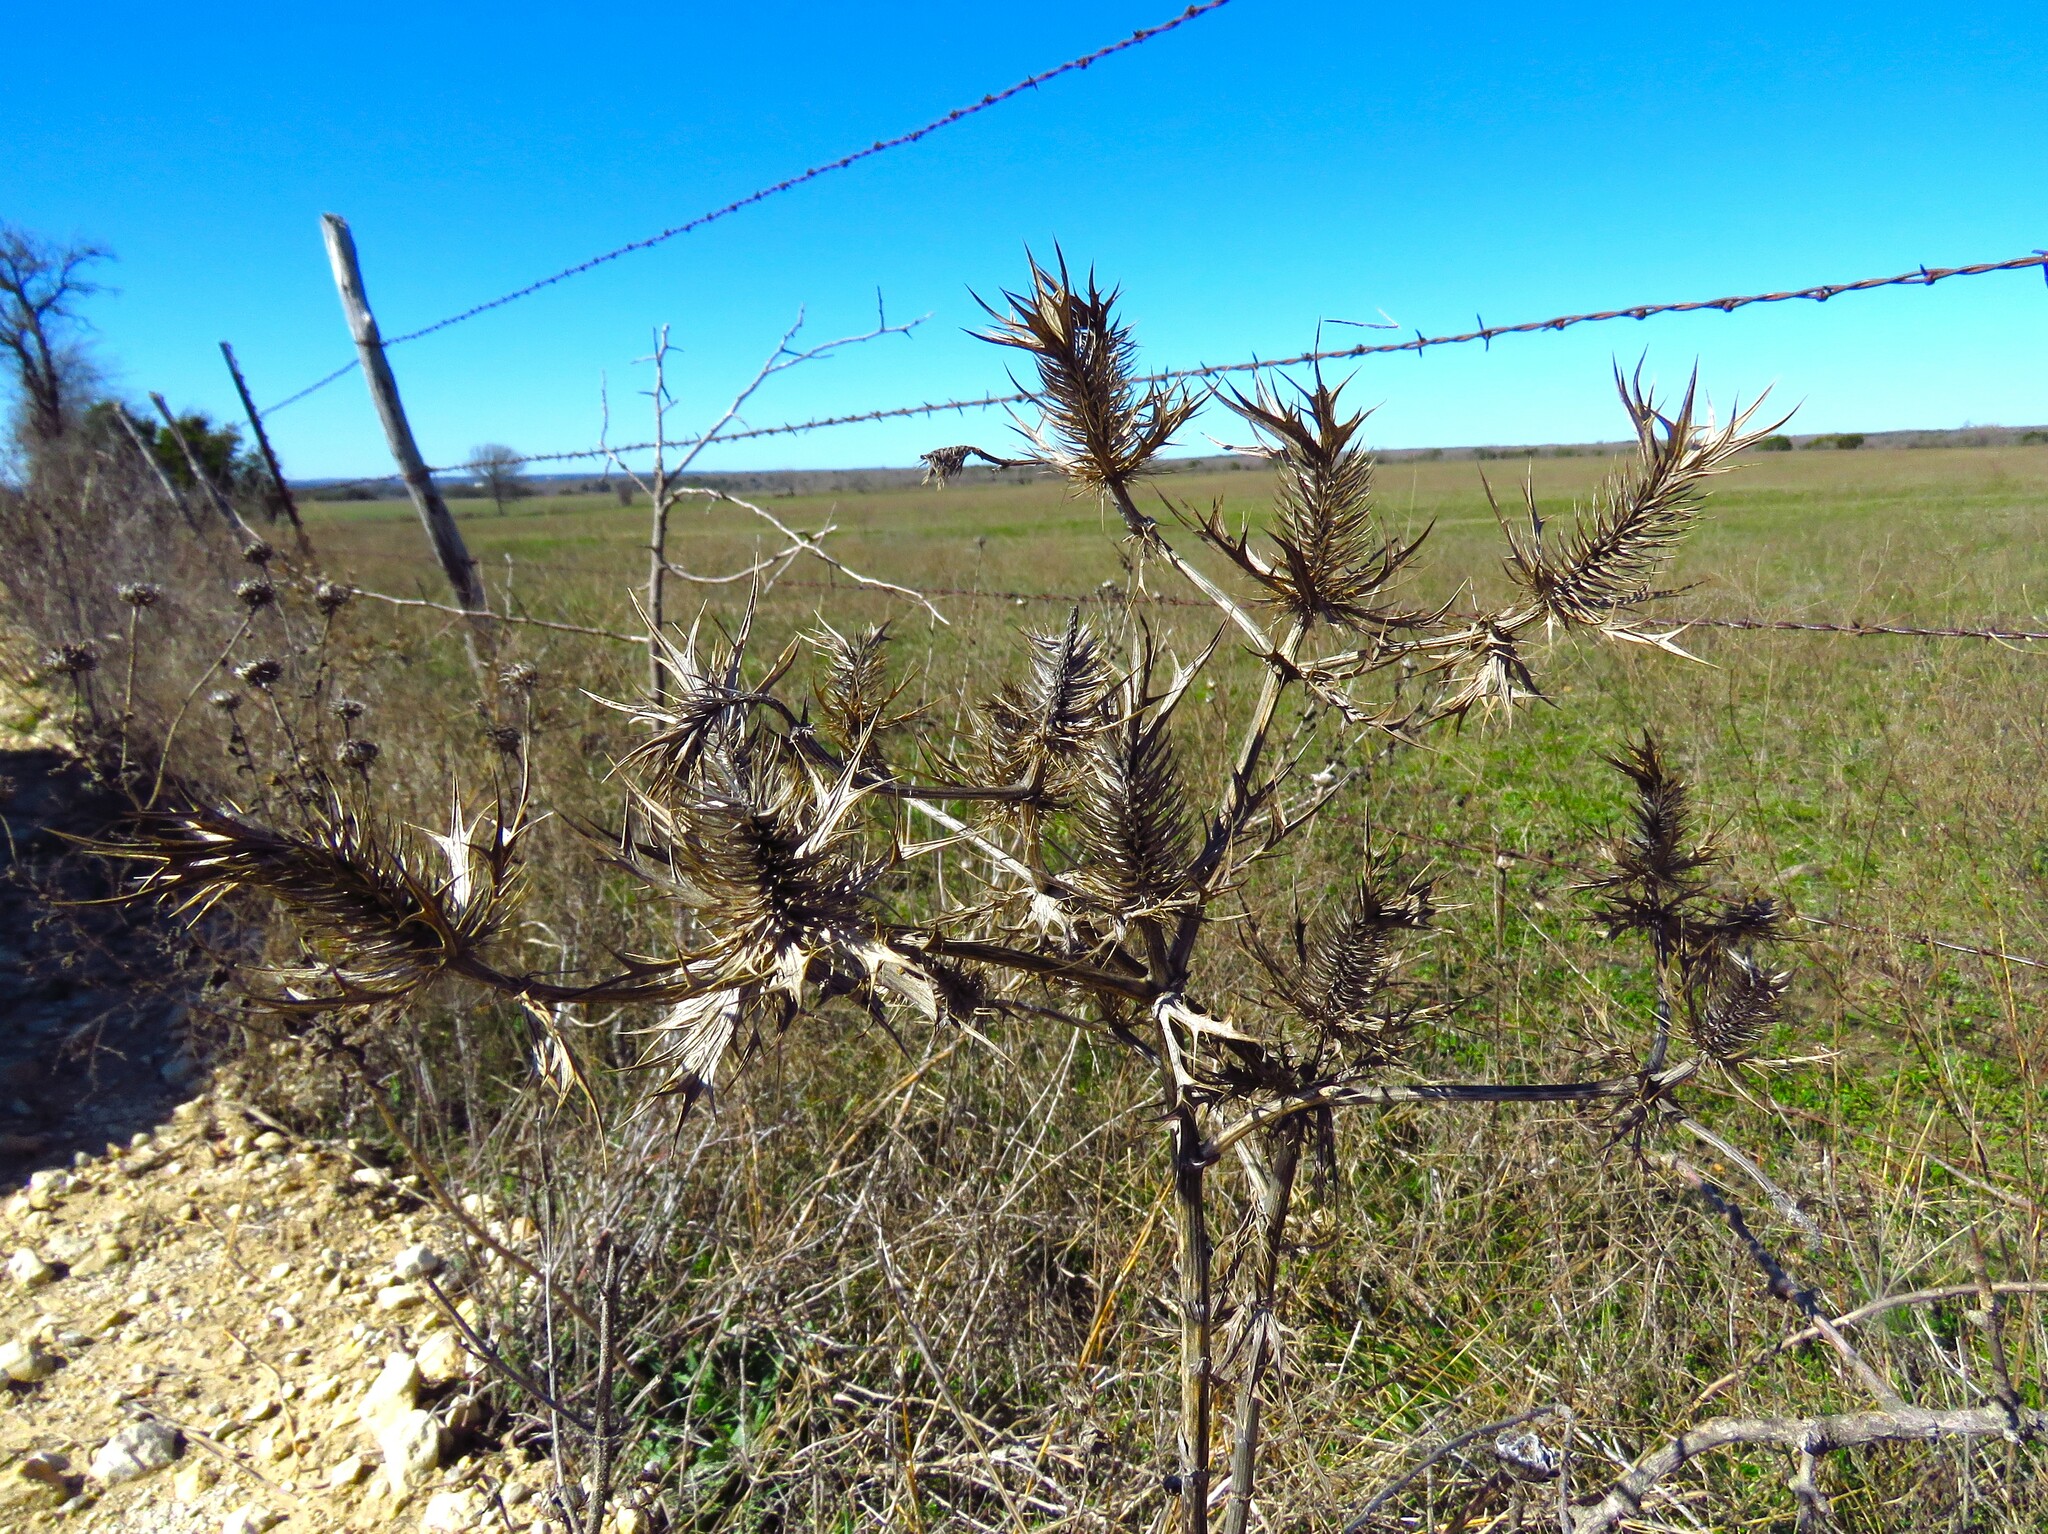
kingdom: Plantae
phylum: Tracheophyta
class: Magnoliopsida
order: Apiales
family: Apiaceae
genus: Eryngium
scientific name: Eryngium leavenworthii
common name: Leavenworth's eryngo
